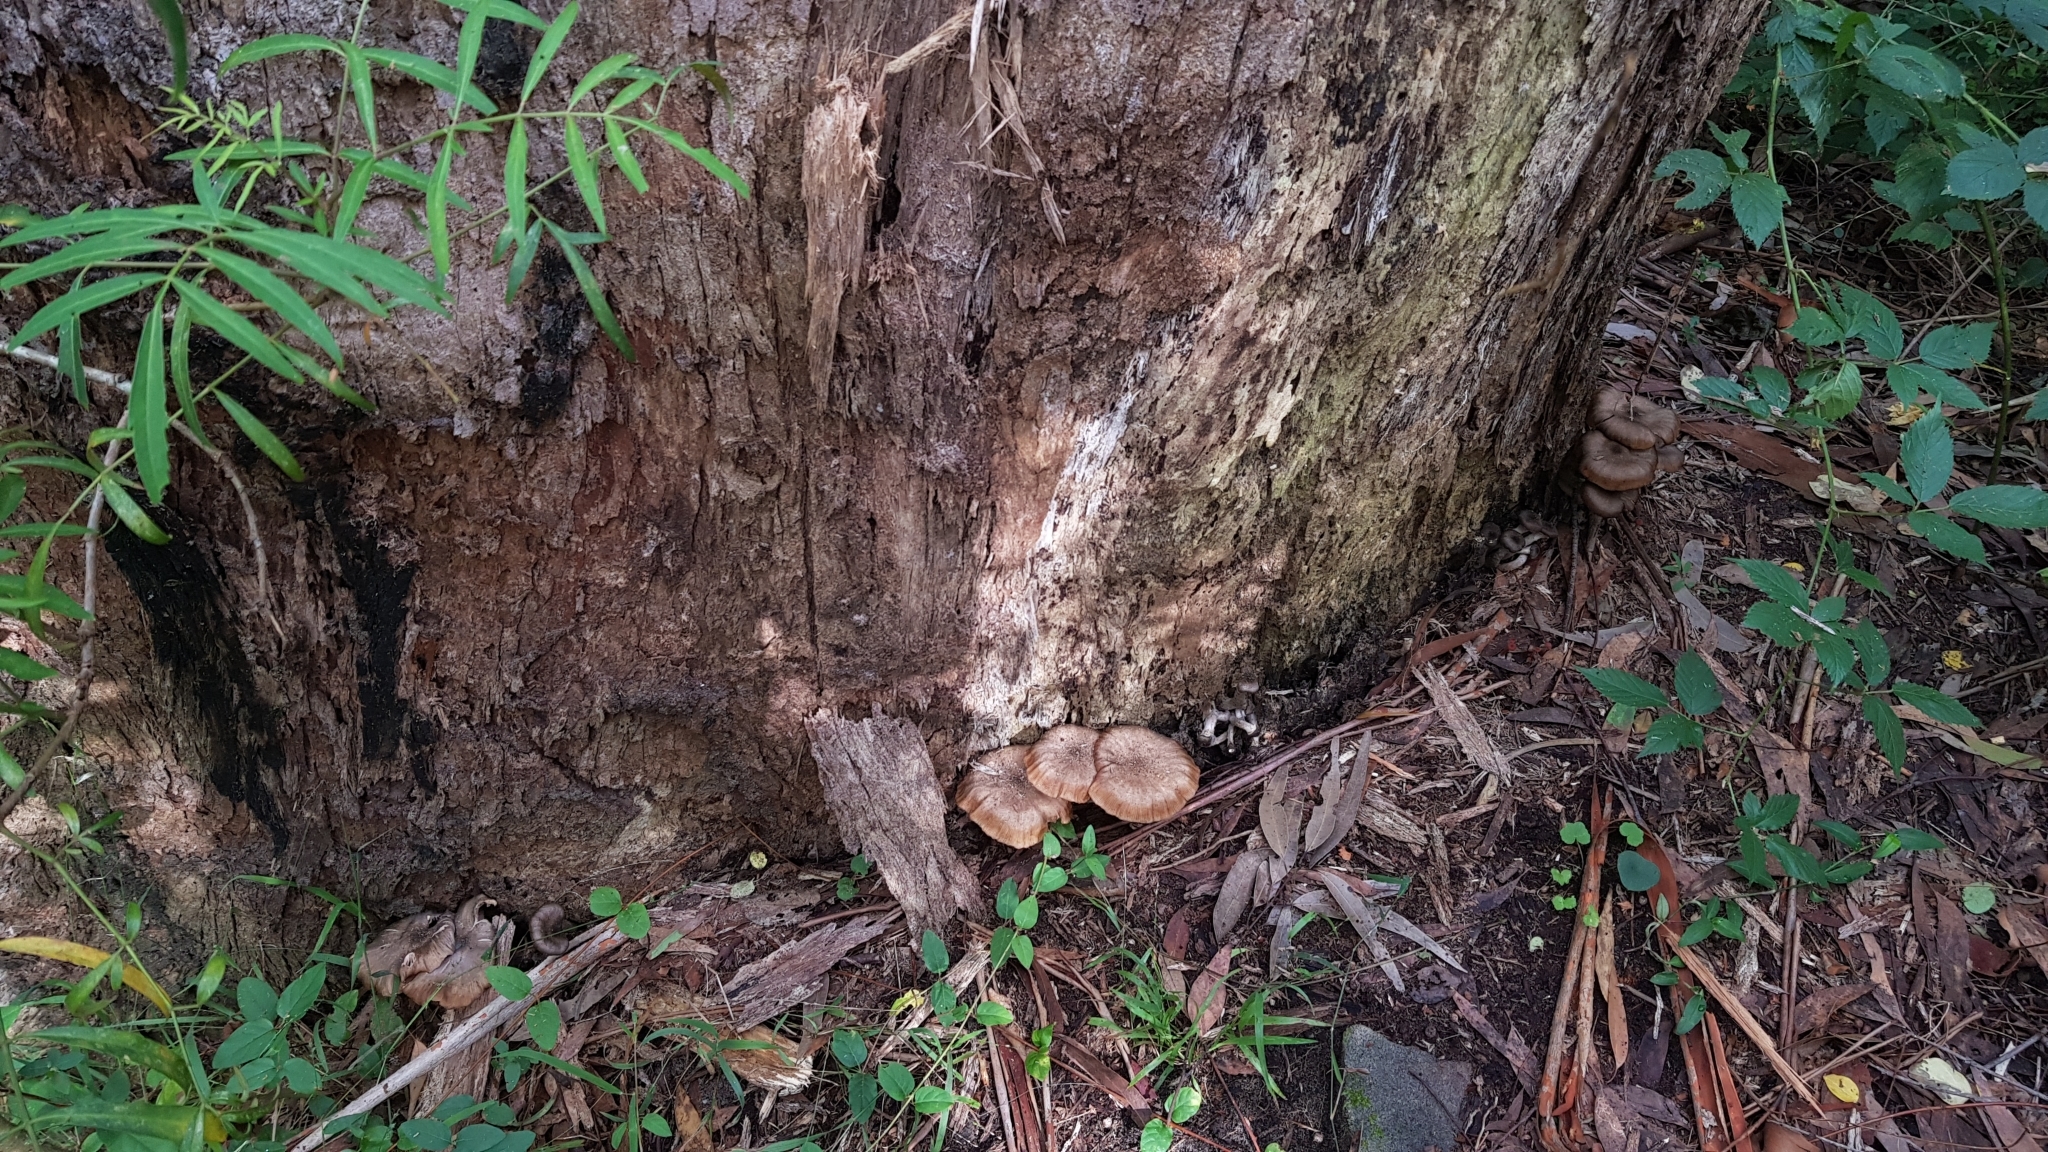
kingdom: Fungi
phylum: Basidiomycota
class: Agaricomycetes
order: Agaricales
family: Physalacriaceae
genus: Armillaria
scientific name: Armillaria novae-zelandiae
